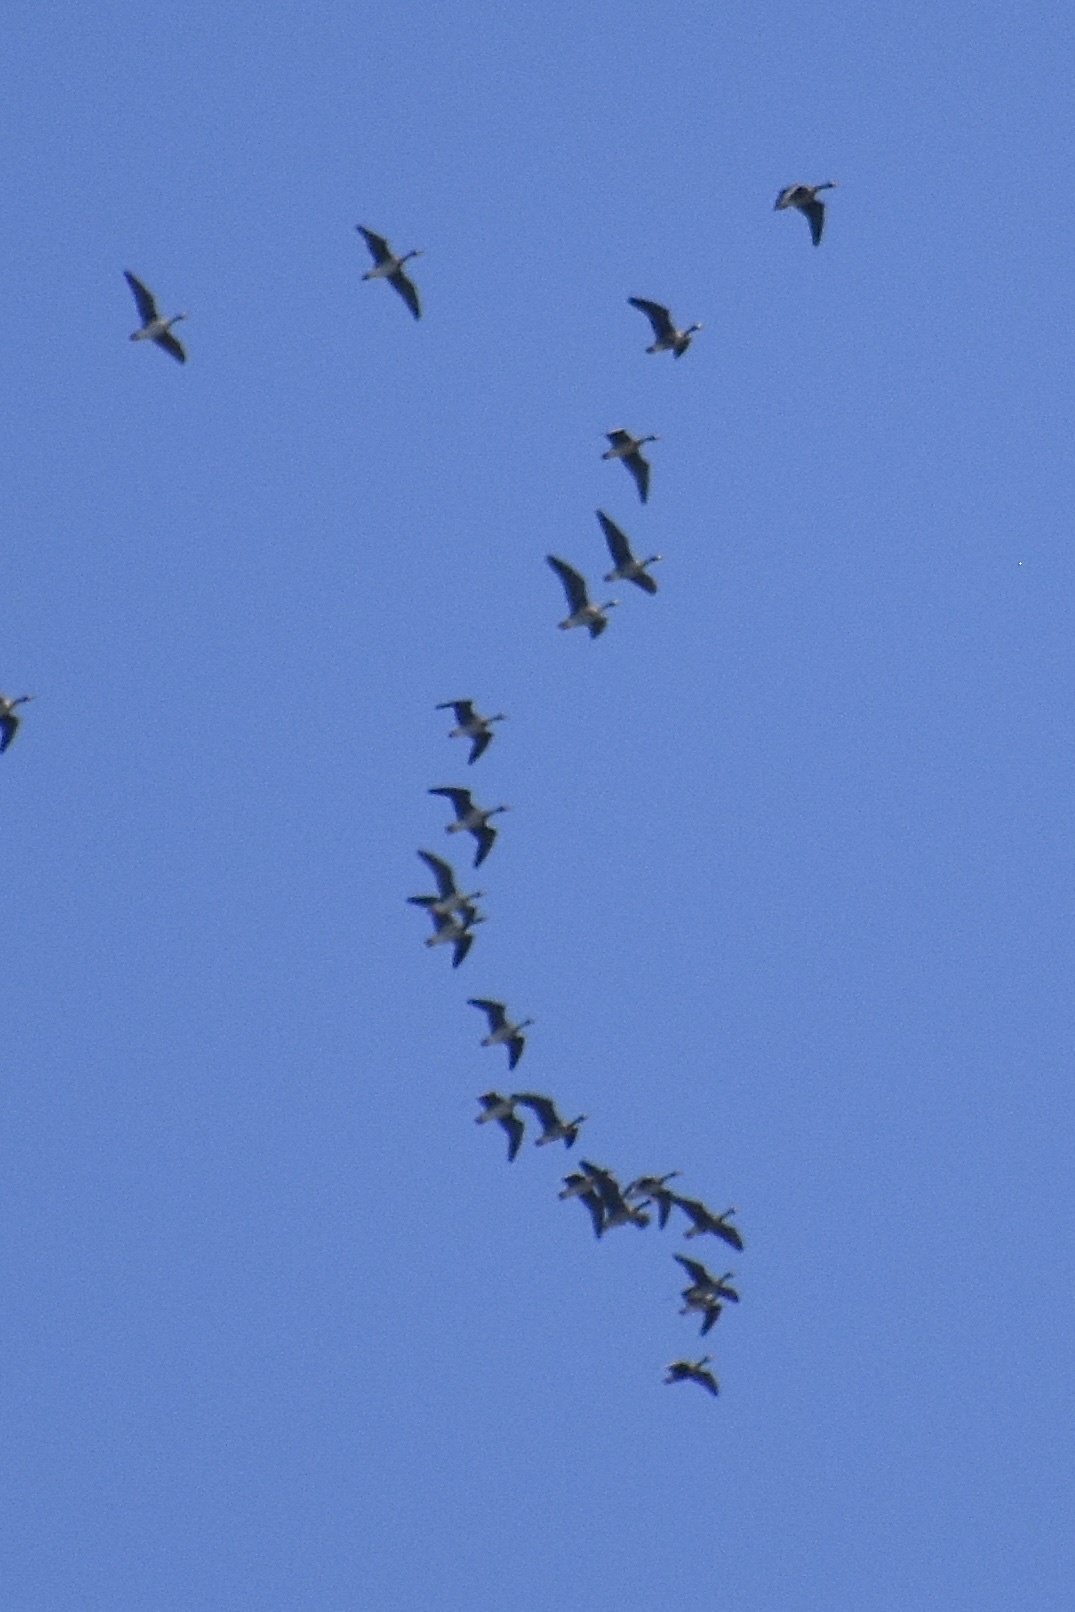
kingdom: Animalia
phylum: Chordata
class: Aves
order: Anseriformes
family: Anatidae
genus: Anser
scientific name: Anser albifrons
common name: Greater white-fronted goose
